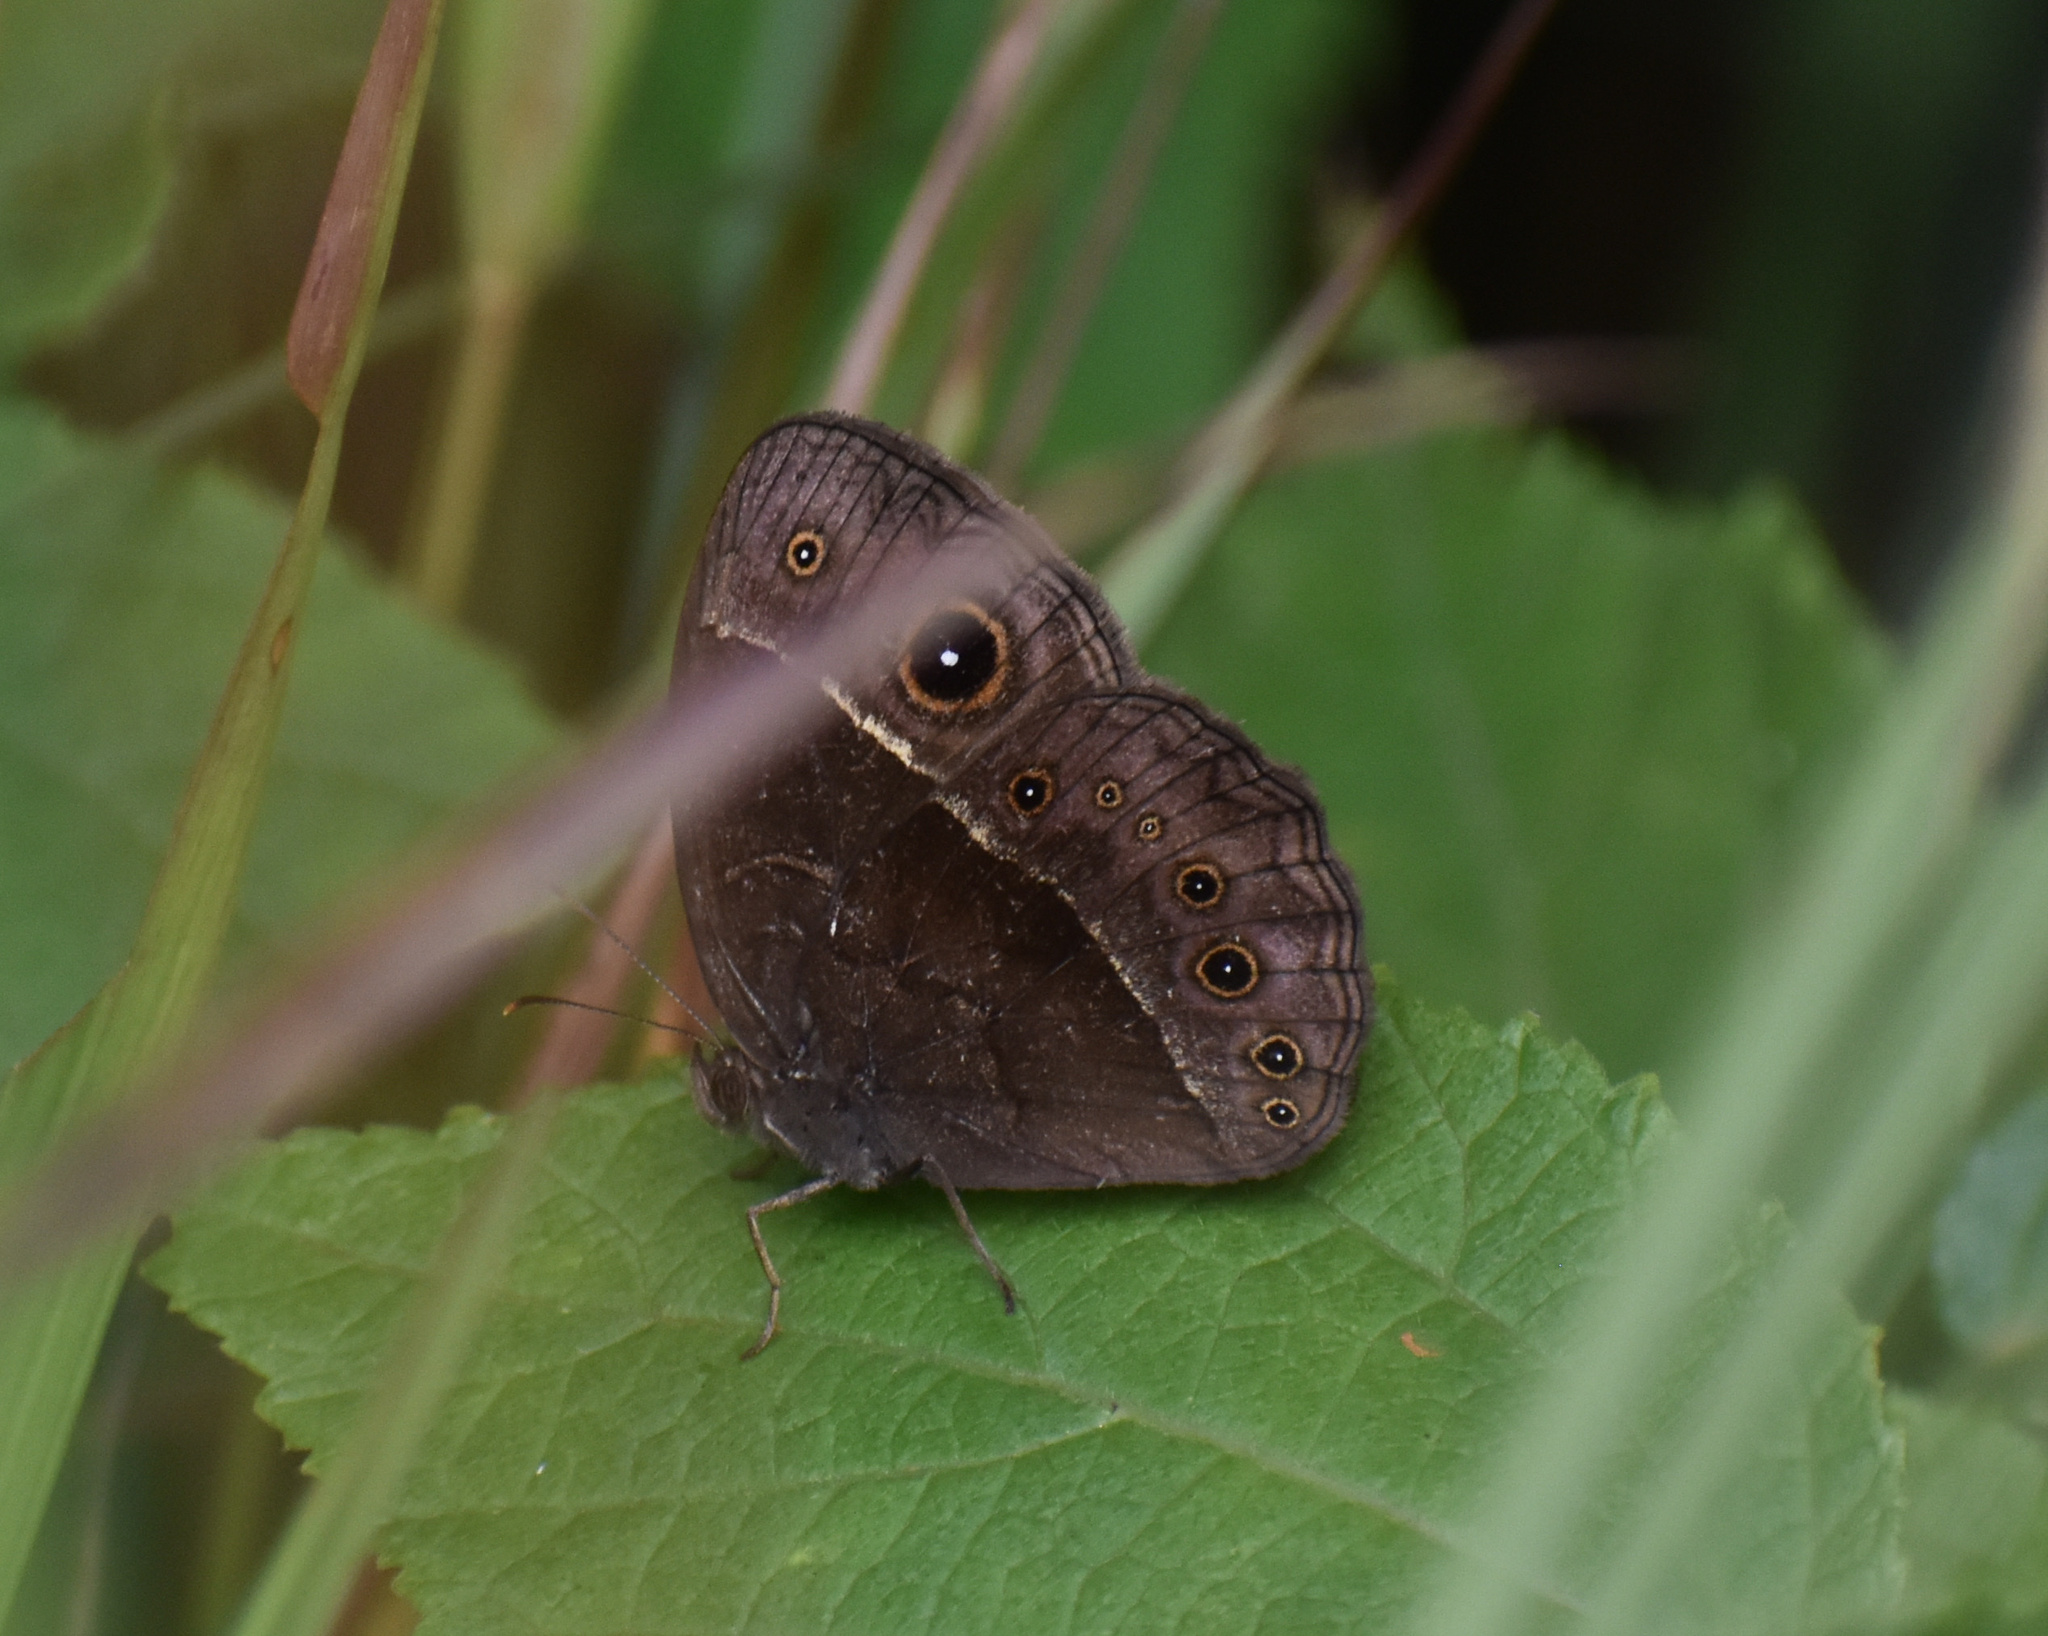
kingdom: Animalia
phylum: Arthropoda
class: Insecta
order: Lepidoptera
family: Nymphalidae
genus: Mycalesis
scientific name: Mycalesis rhacotis
